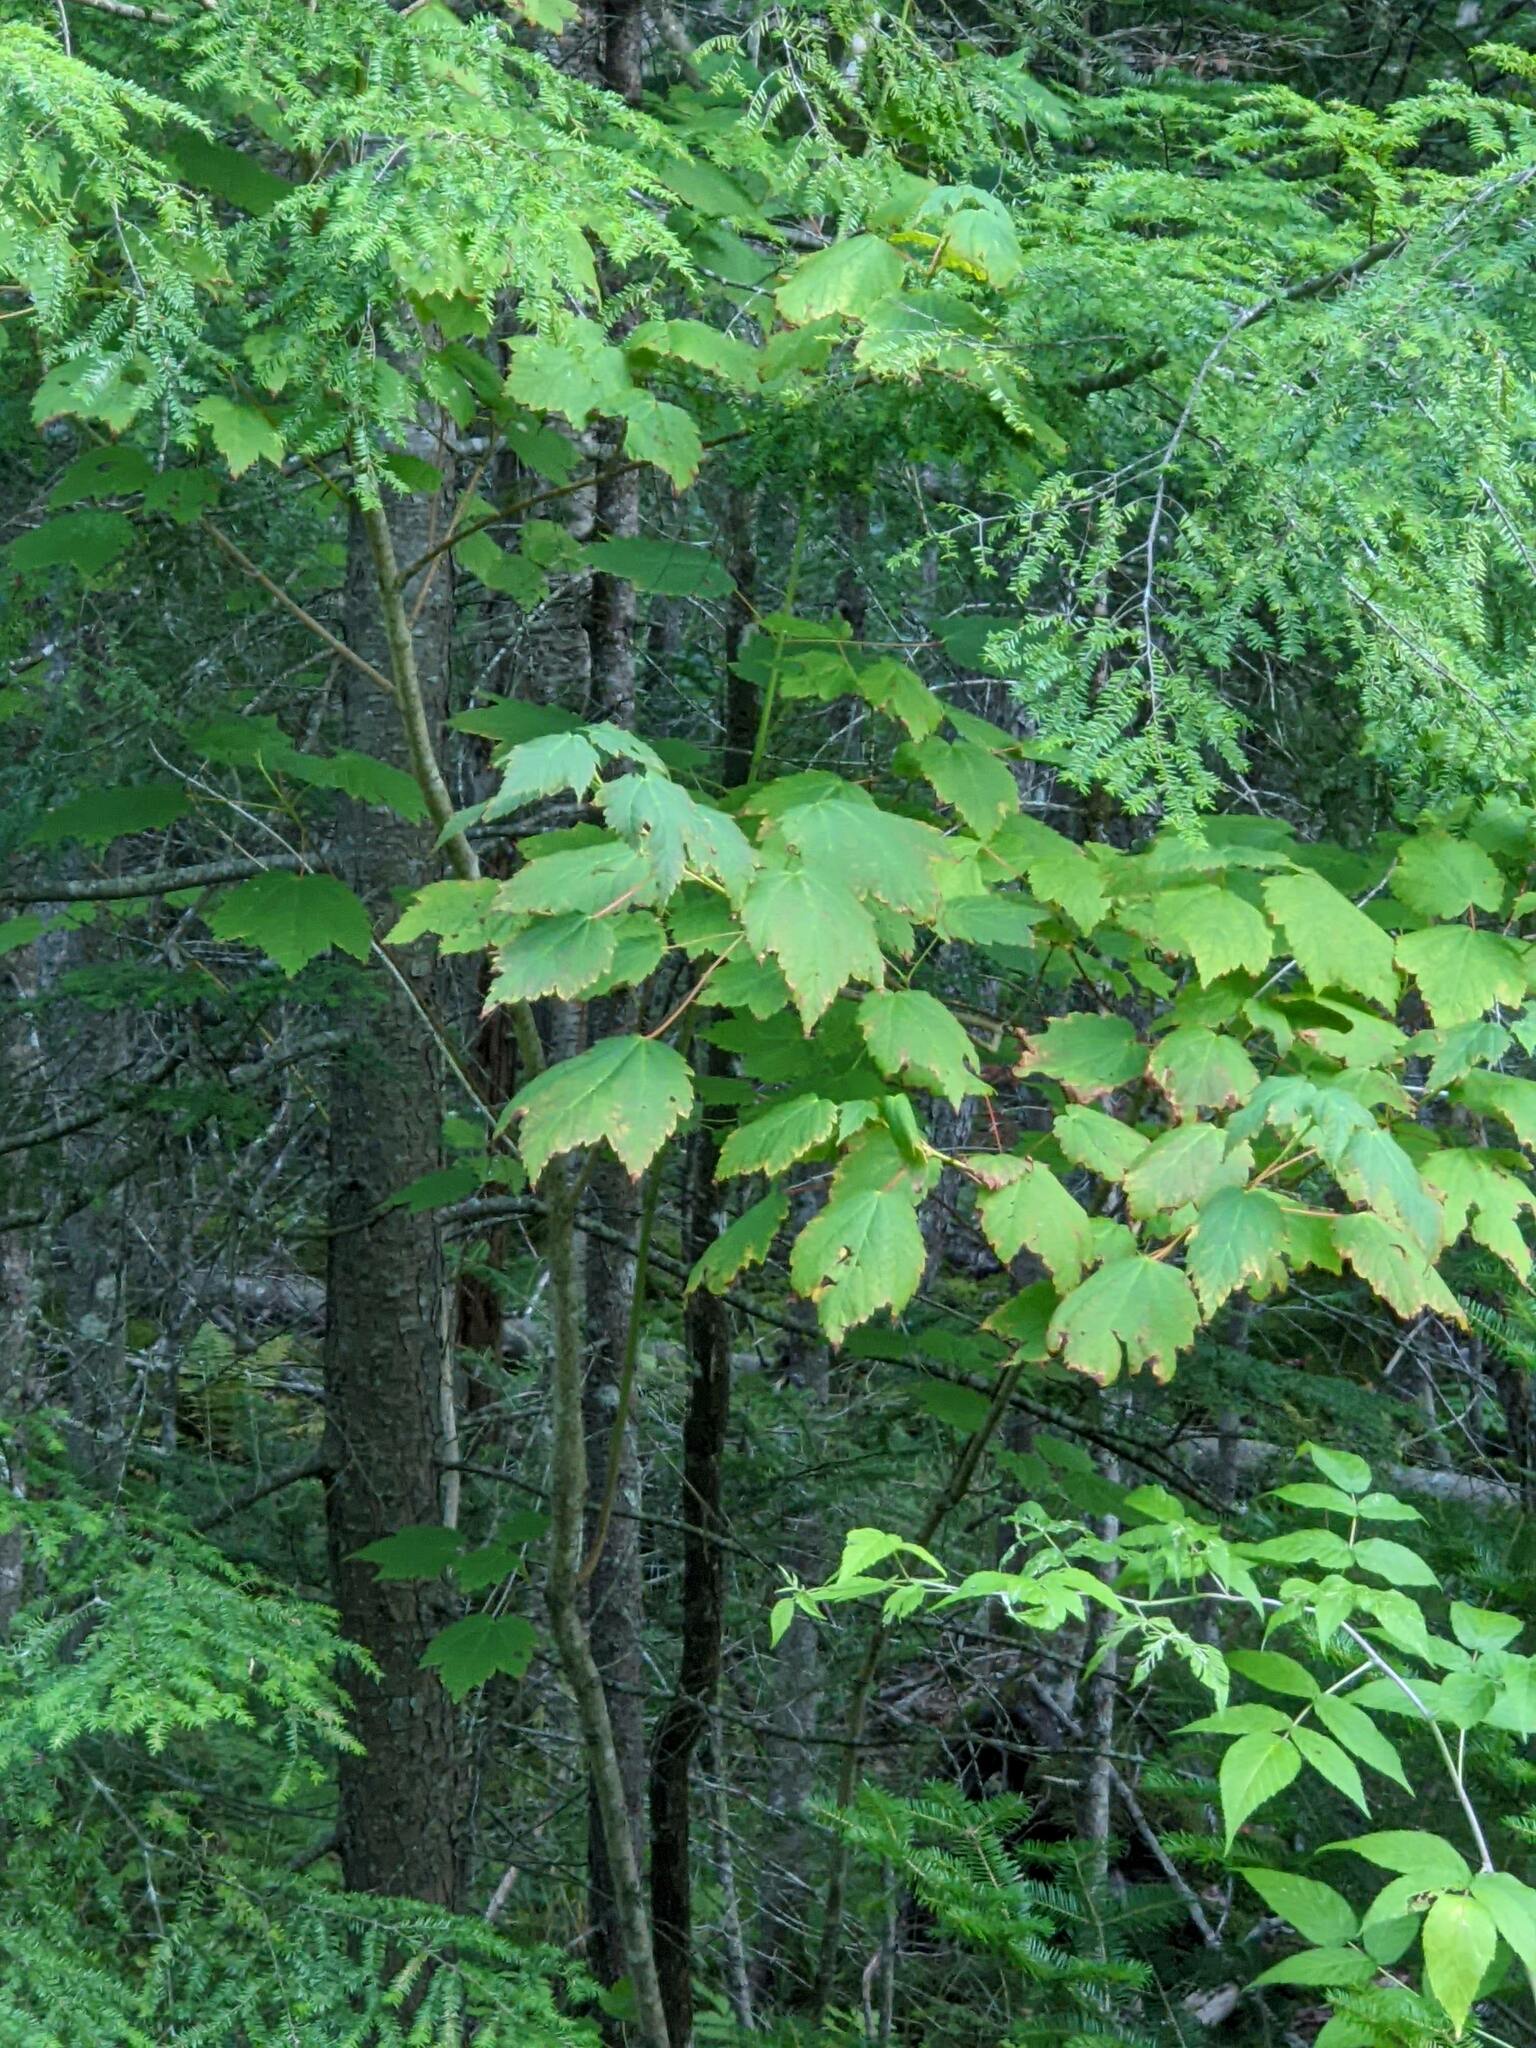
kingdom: Plantae
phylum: Tracheophyta
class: Magnoliopsida
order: Sapindales
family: Sapindaceae
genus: Acer
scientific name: Acer pensylvanicum
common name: Moosewood
